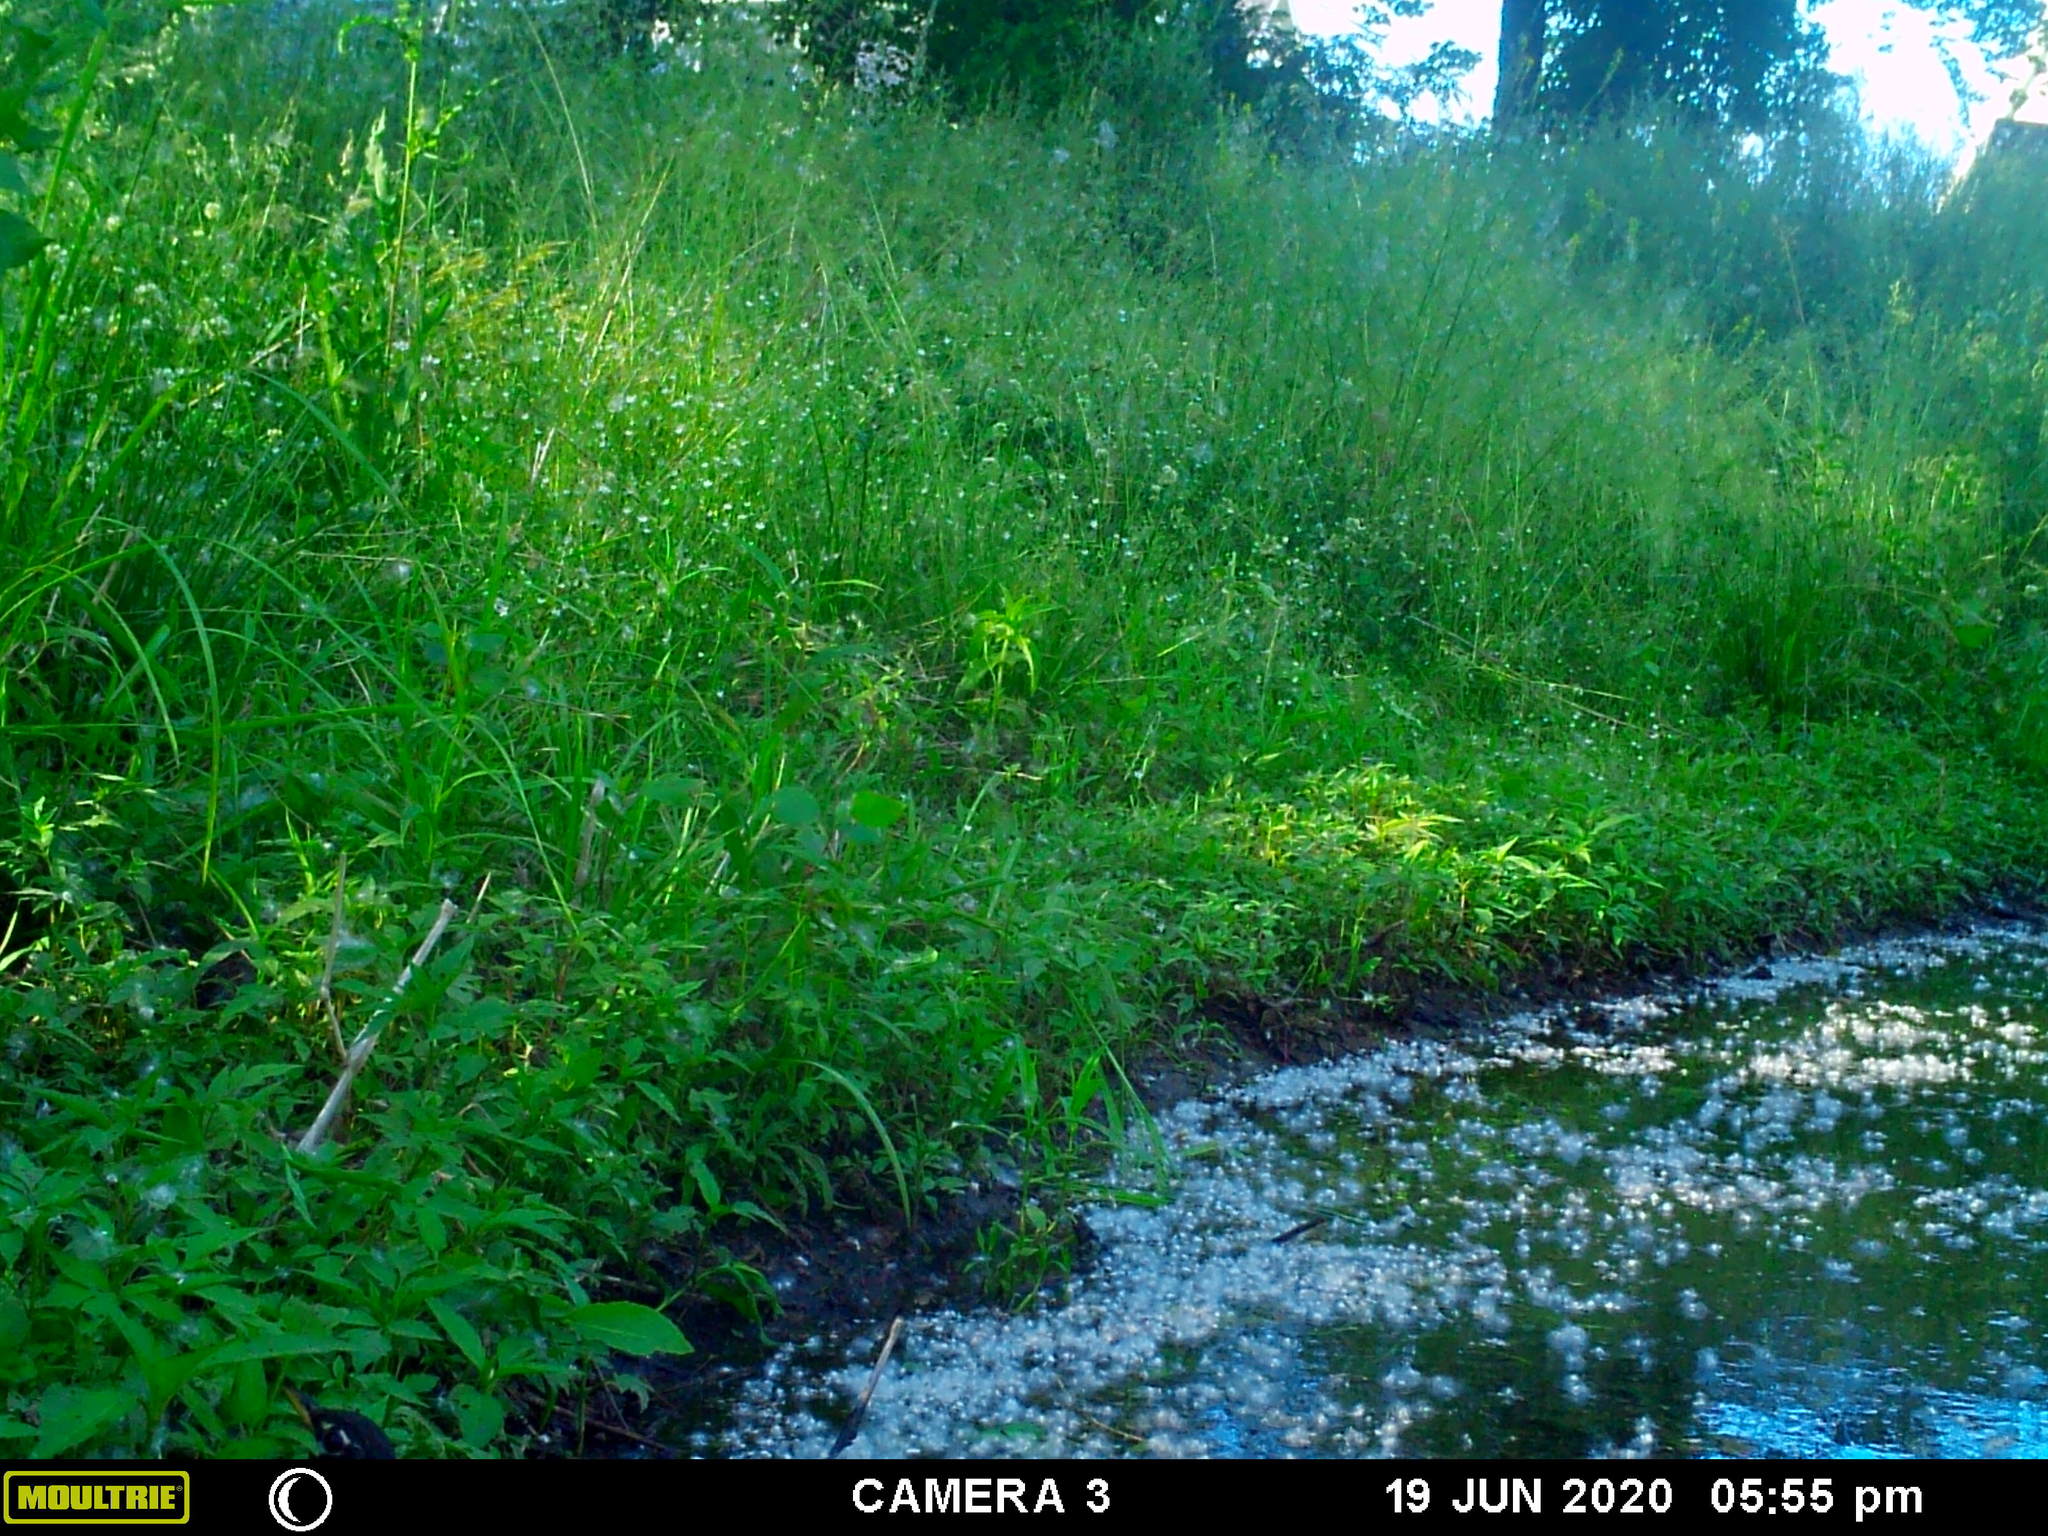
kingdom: Animalia
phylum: Chordata
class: Aves
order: Passeriformes
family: Turdidae
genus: Turdus
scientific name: Turdus migratorius
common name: American robin
